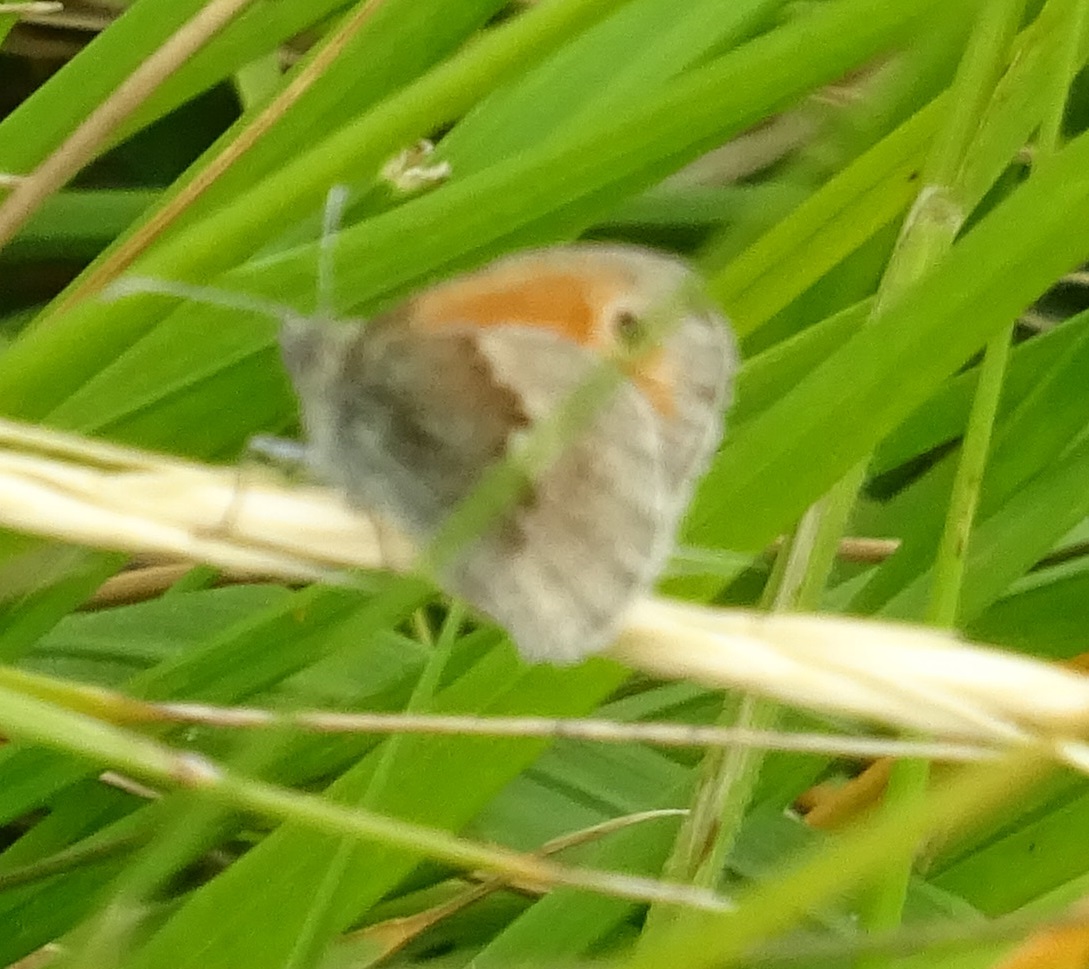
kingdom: Animalia
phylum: Arthropoda
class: Insecta
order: Lepidoptera
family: Nymphalidae
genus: Coenonympha
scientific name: Coenonympha pamphilus
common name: Small heath
